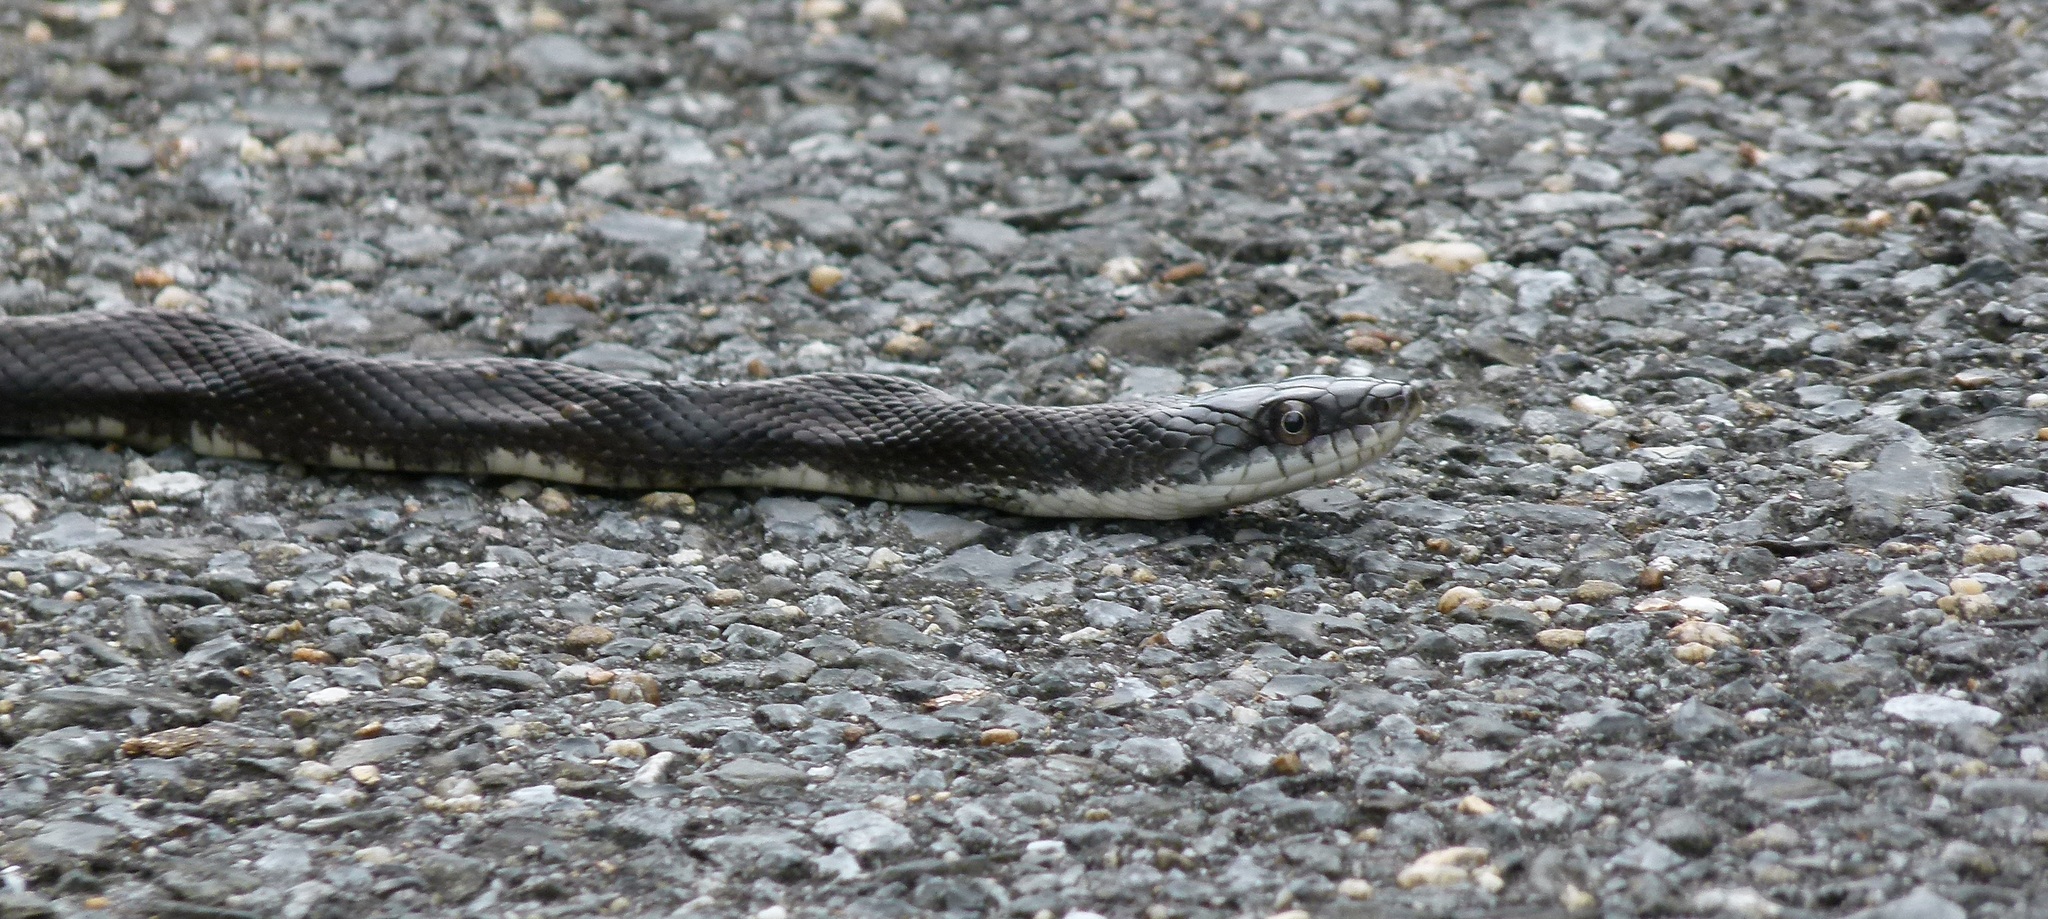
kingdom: Animalia
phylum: Chordata
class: Squamata
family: Colubridae
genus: Pantherophis
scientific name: Pantherophis alleghaniensis
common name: Eastern rat snake
